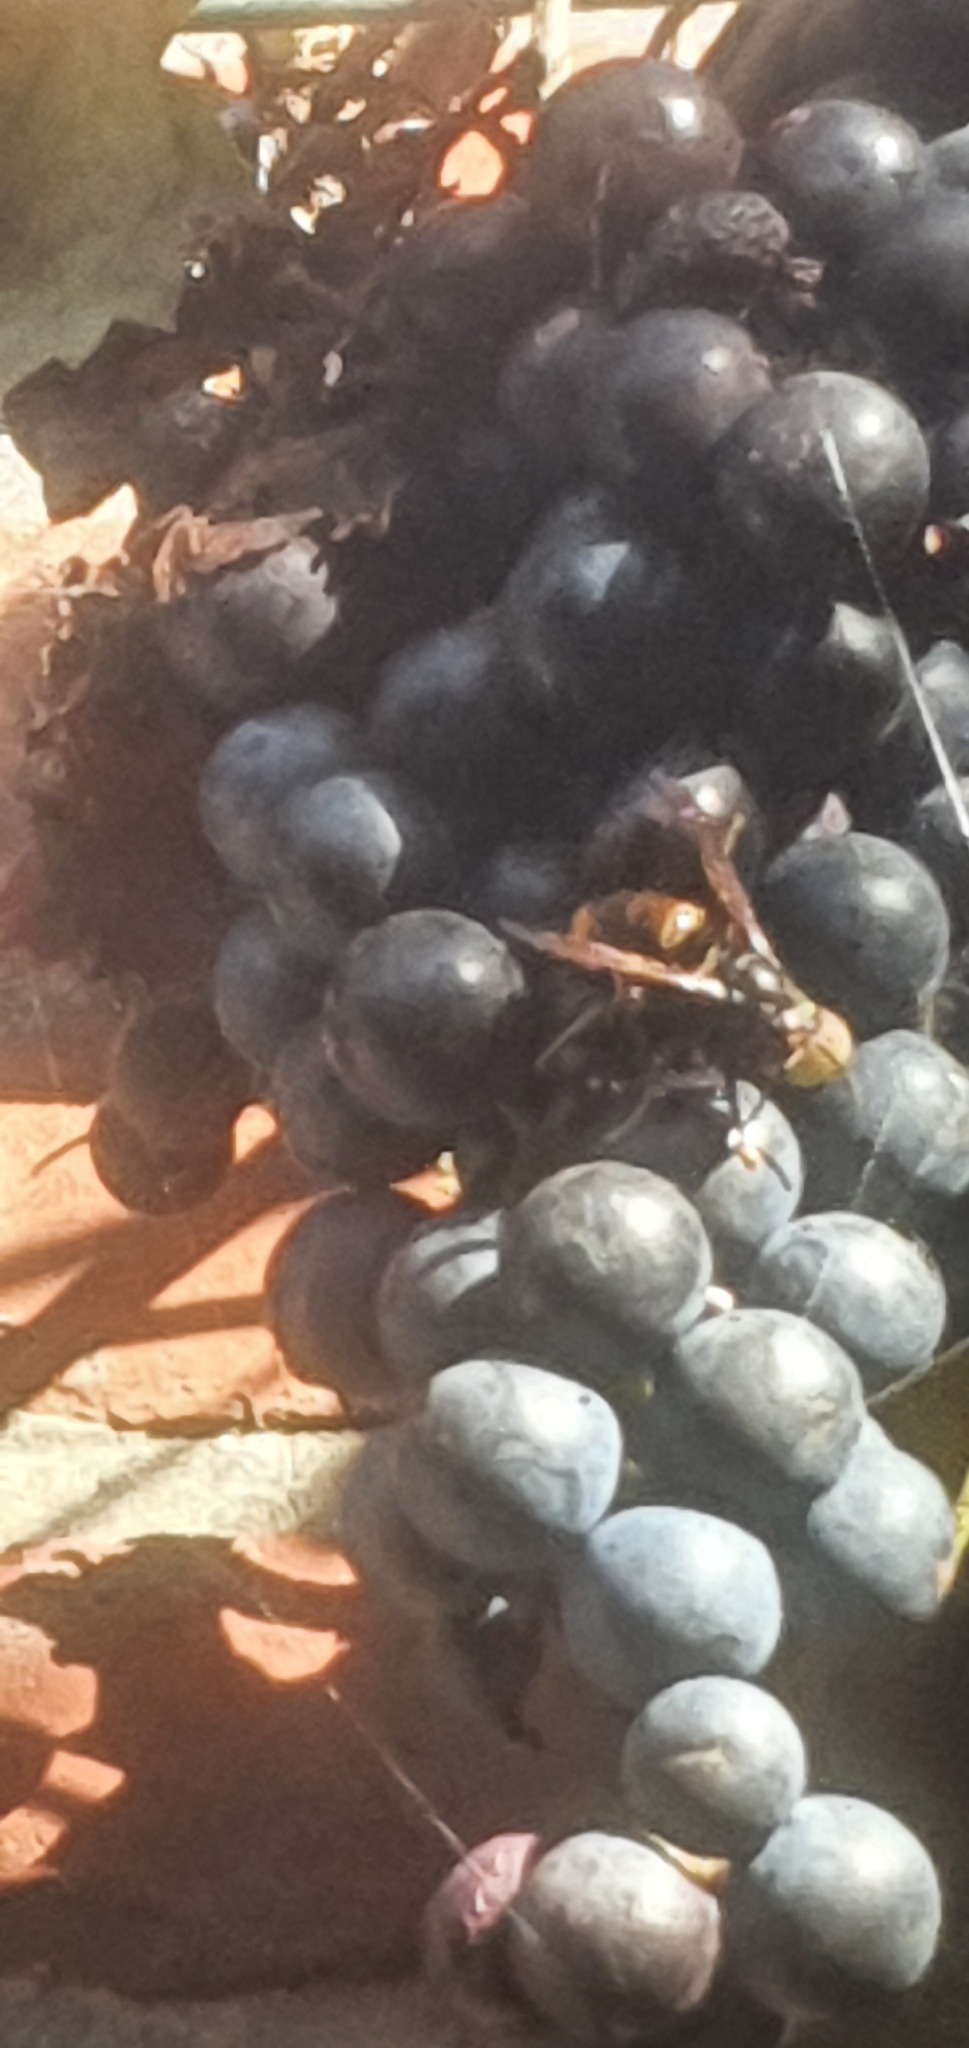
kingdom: Animalia
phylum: Arthropoda
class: Insecta
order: Hymenoptera
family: Vespidae
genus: Vespa
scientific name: Vespa velutina
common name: Asian hornet
